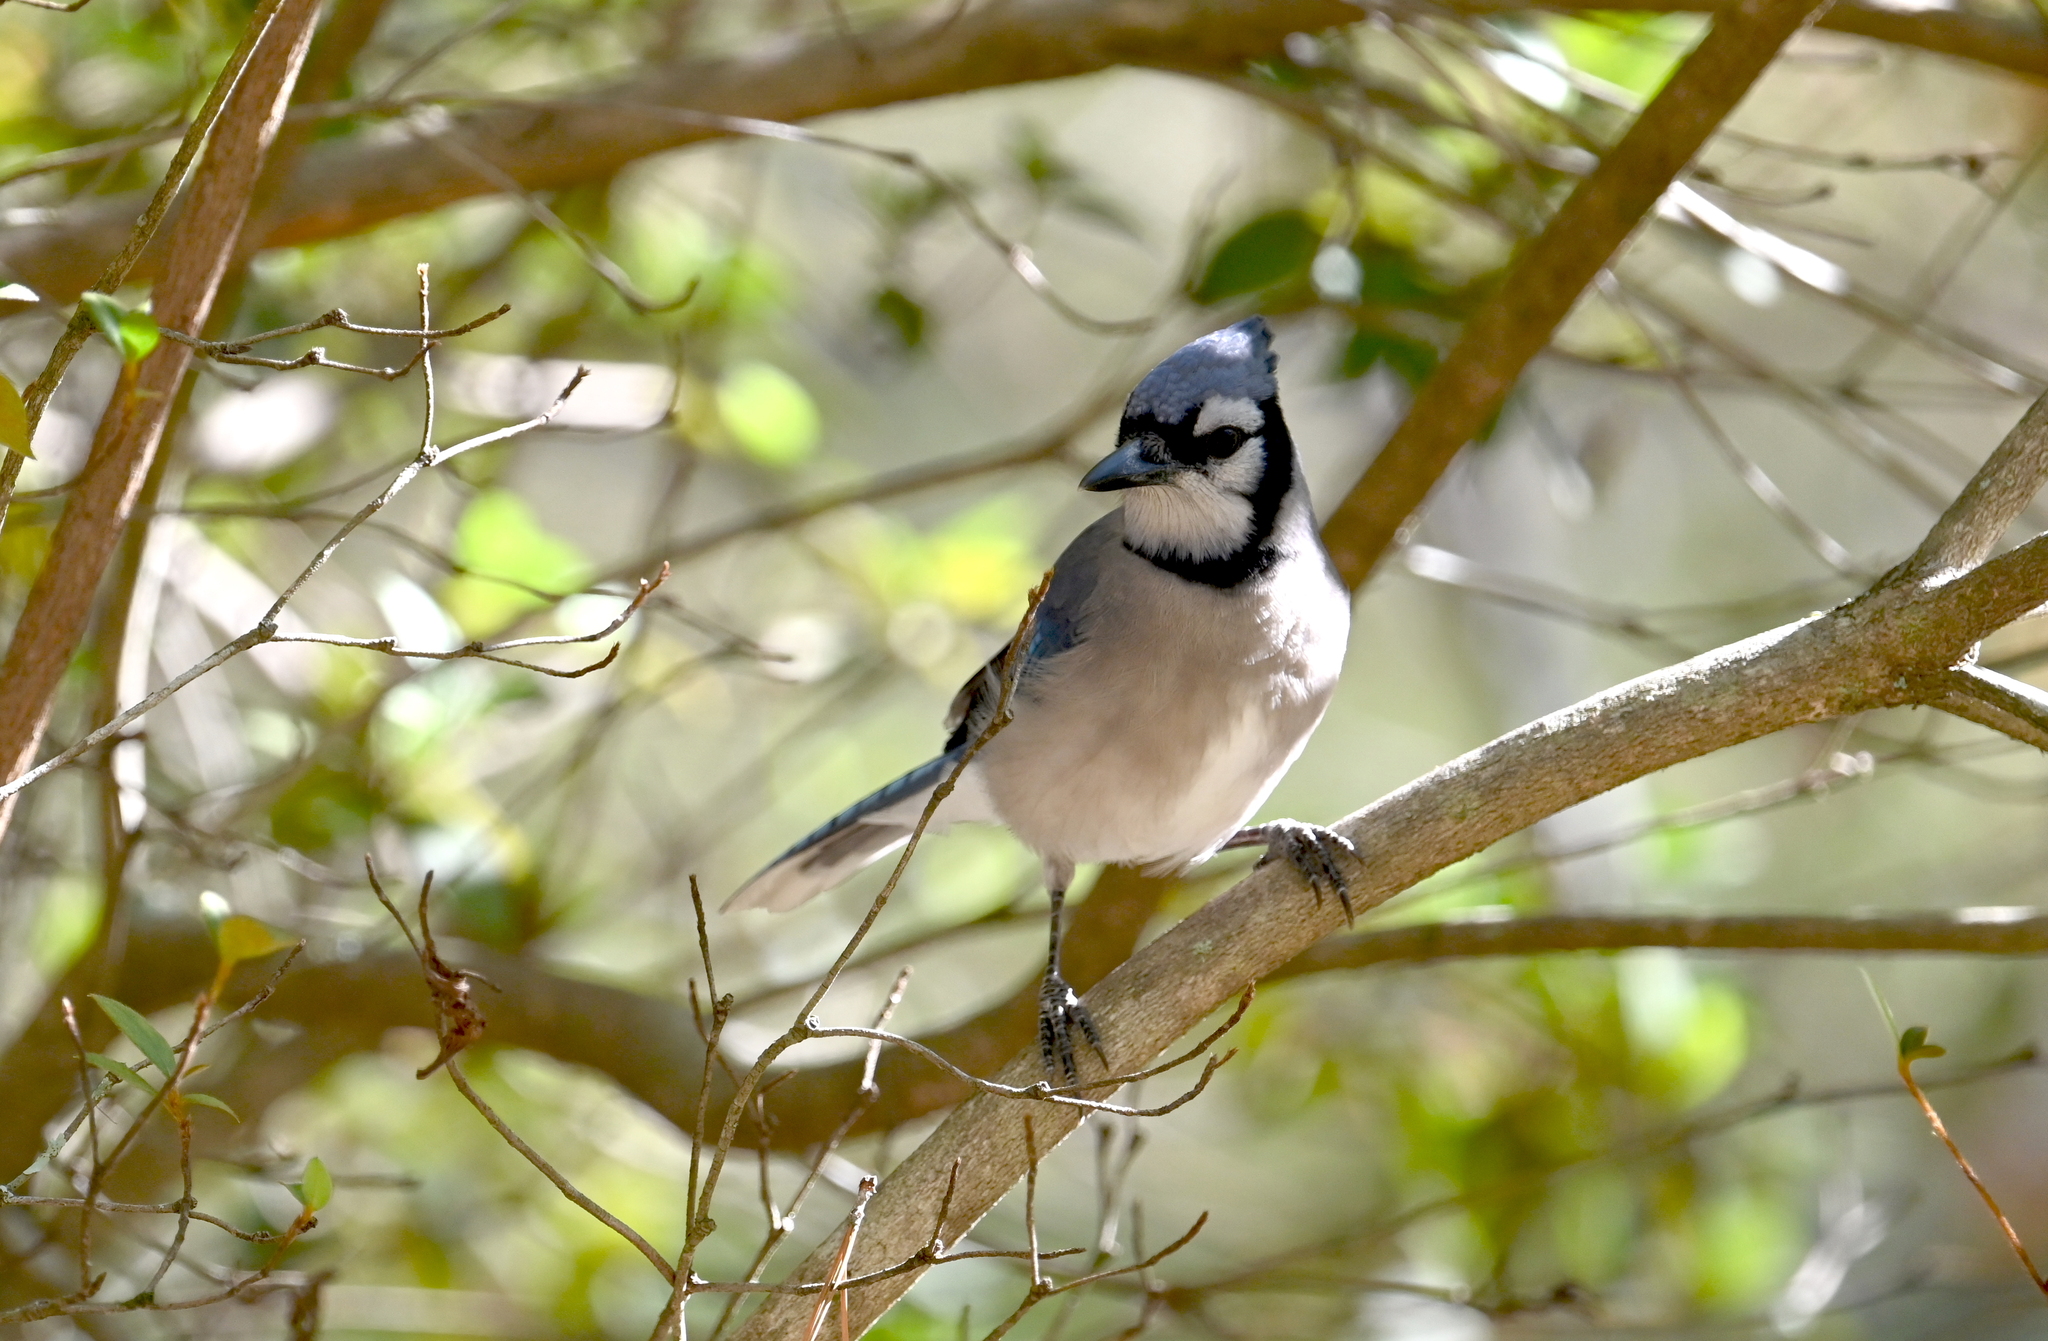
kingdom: Animalia
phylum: Chordata
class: Aves
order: Passeriformes
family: Corvidae
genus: Cyanocitta
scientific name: Cyanocitta cristata
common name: Blue jay
